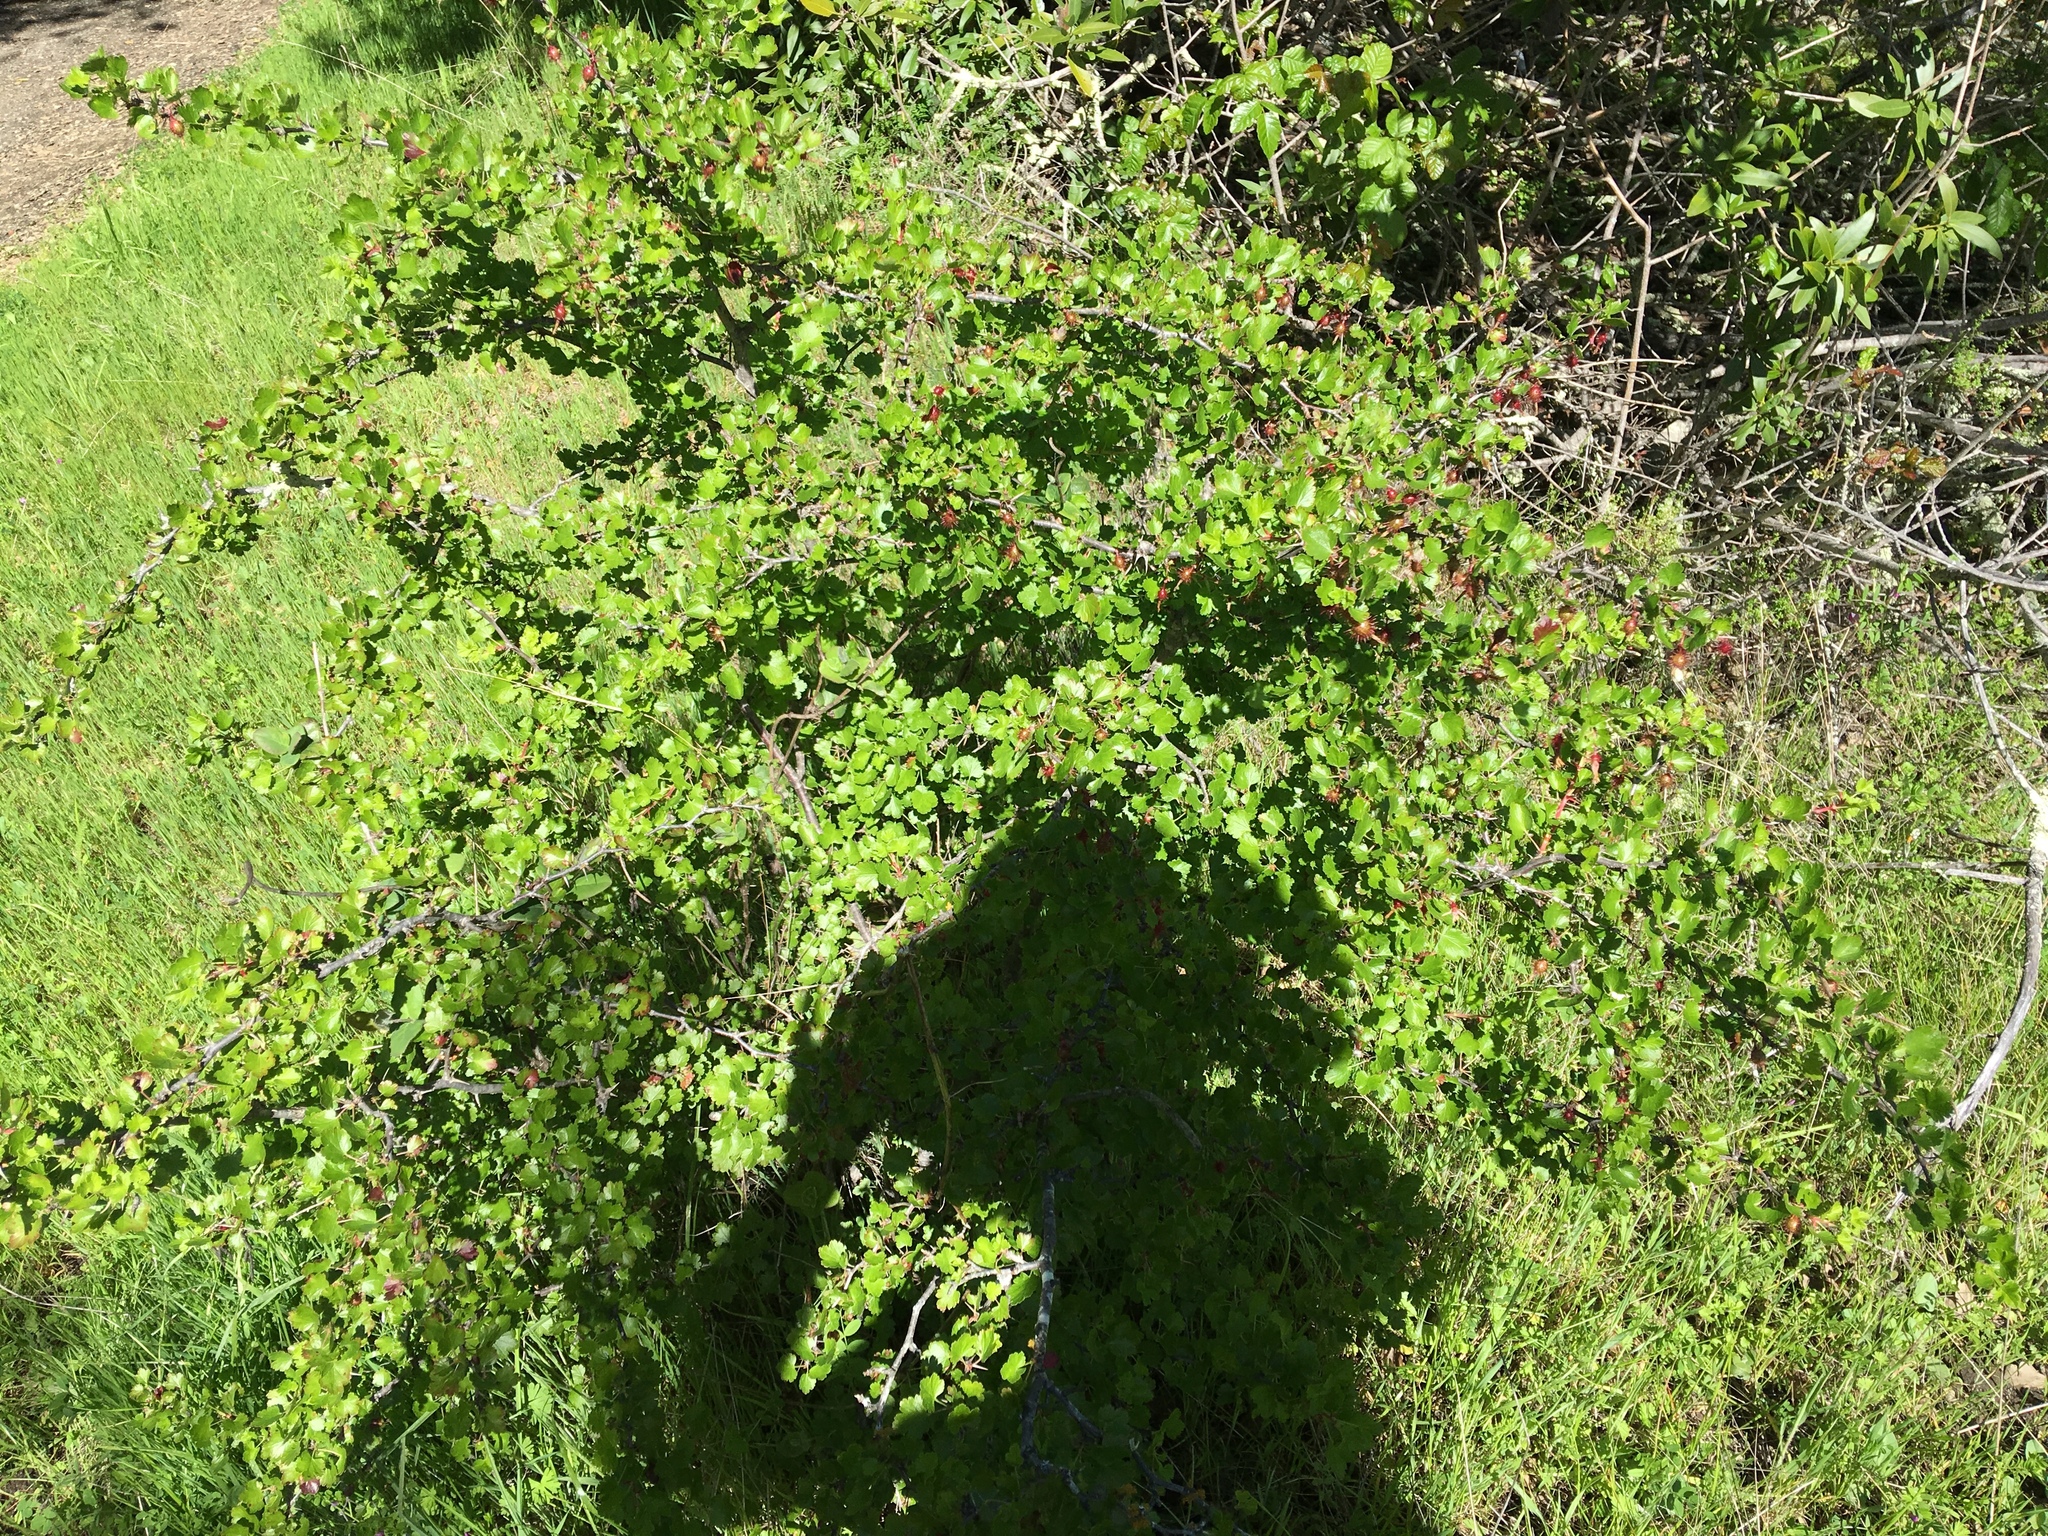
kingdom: Plantae
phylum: Tracheophyta
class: Magnoliopsida
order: Saxifragales
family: Grossulariaceae
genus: Ribes
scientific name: Ribes californicum
